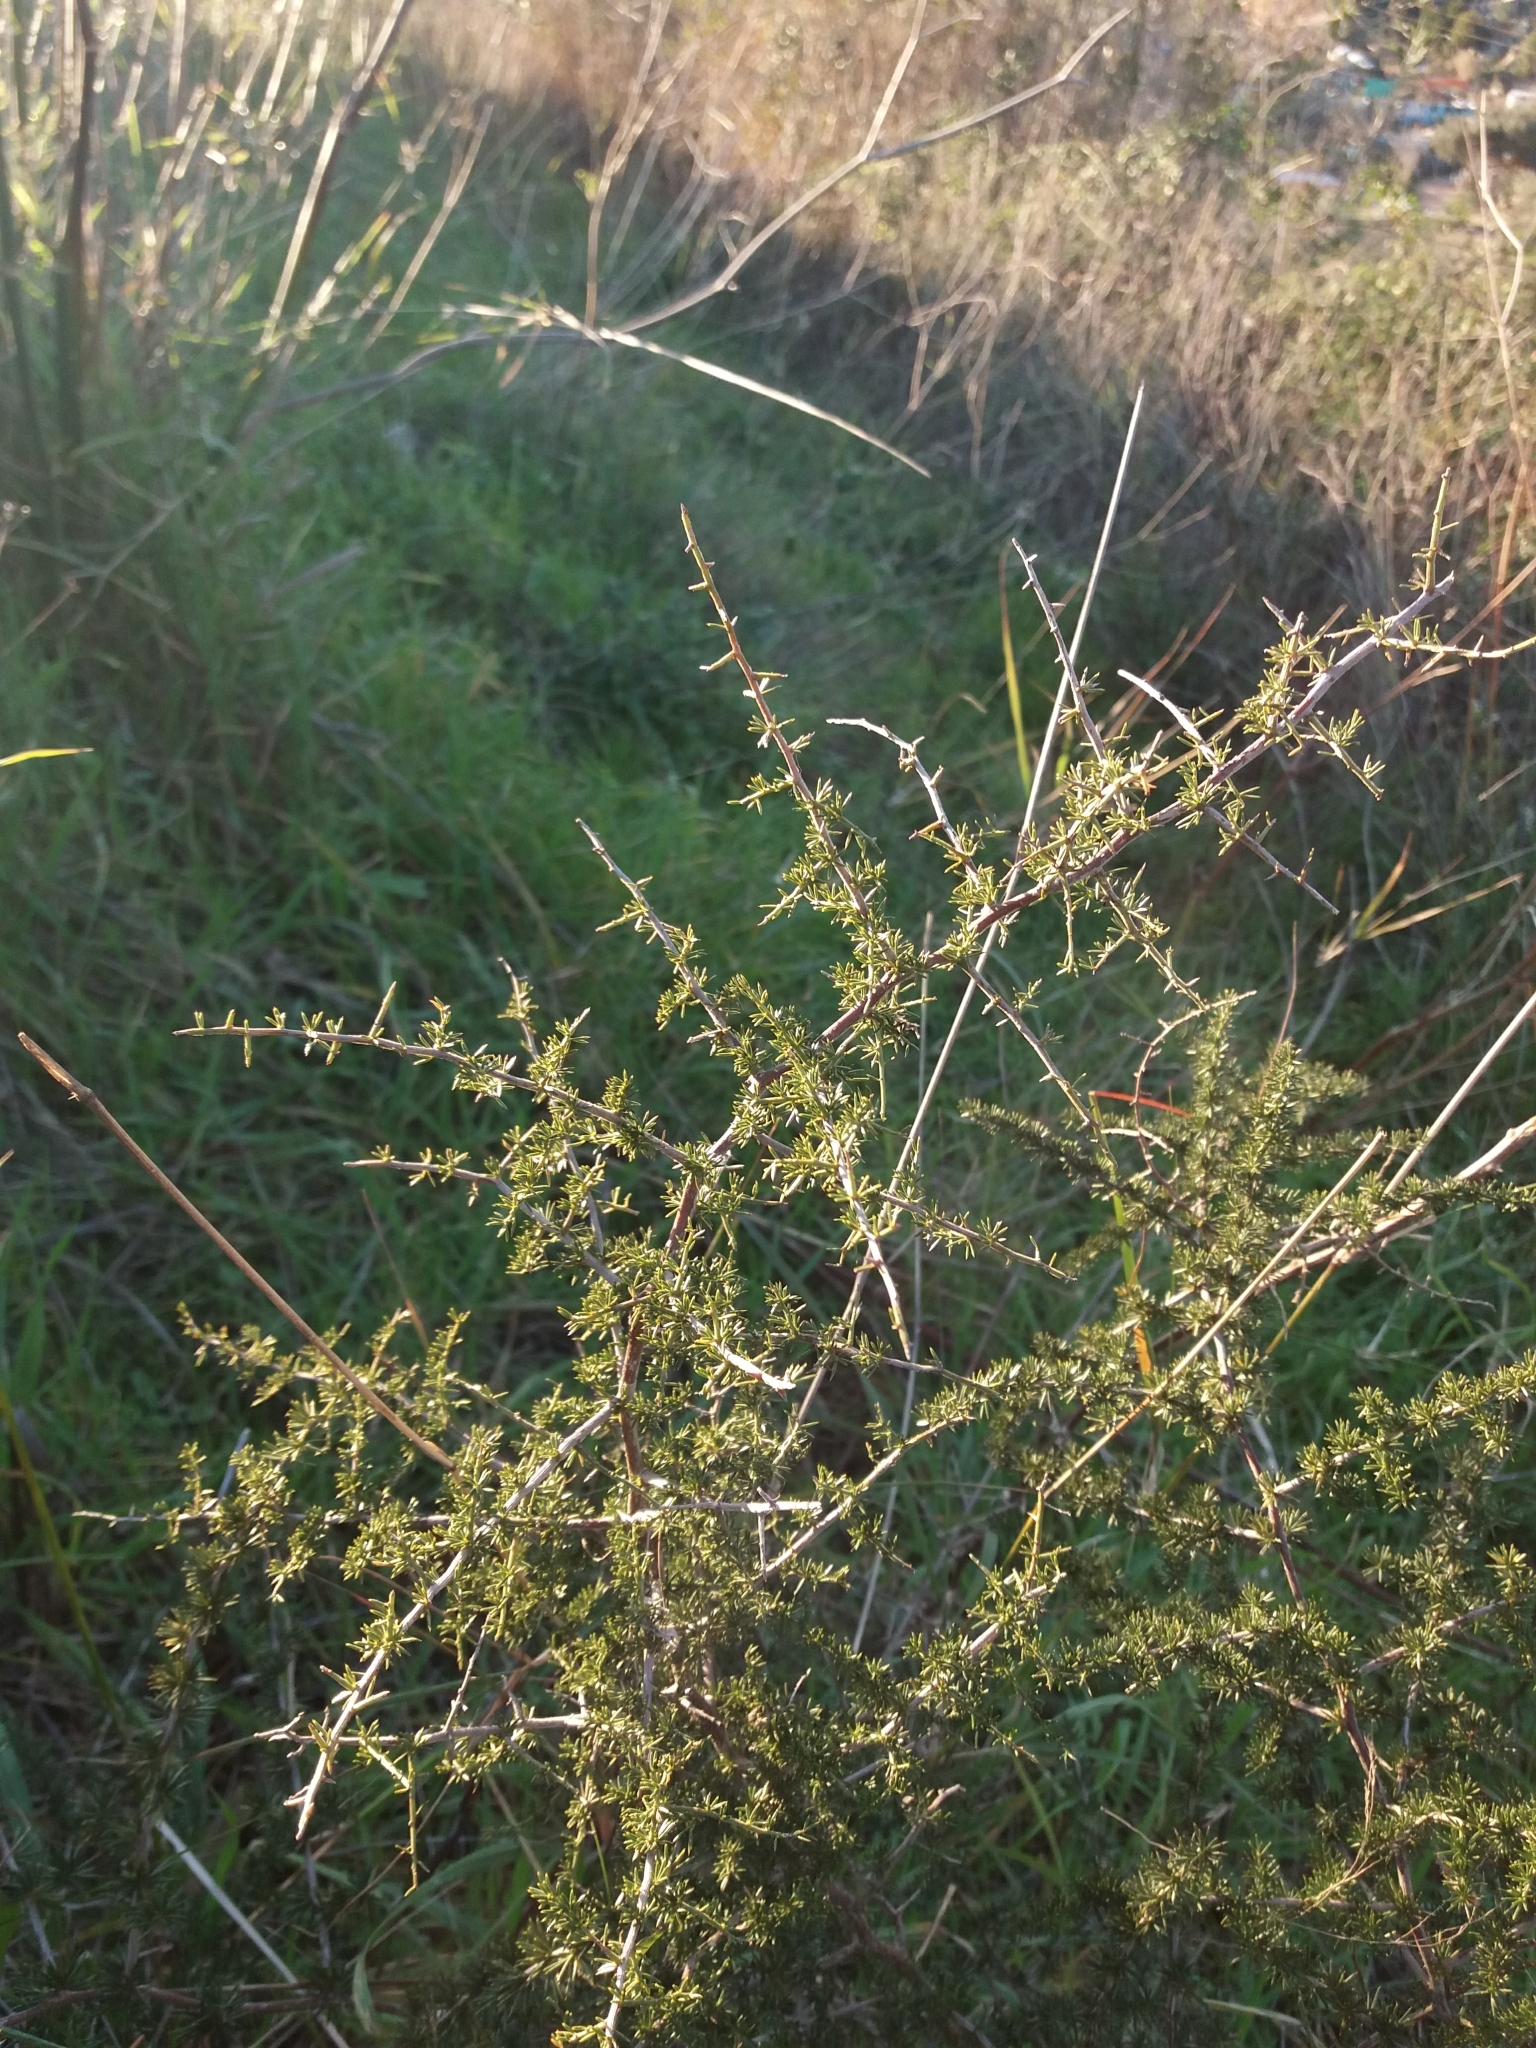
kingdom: Plantae
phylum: Tracheophyta
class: Liliopsida
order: Asparagales
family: Asparagaceae
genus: Asparagus
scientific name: Asparagus acutifolius
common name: Wild asparagus
